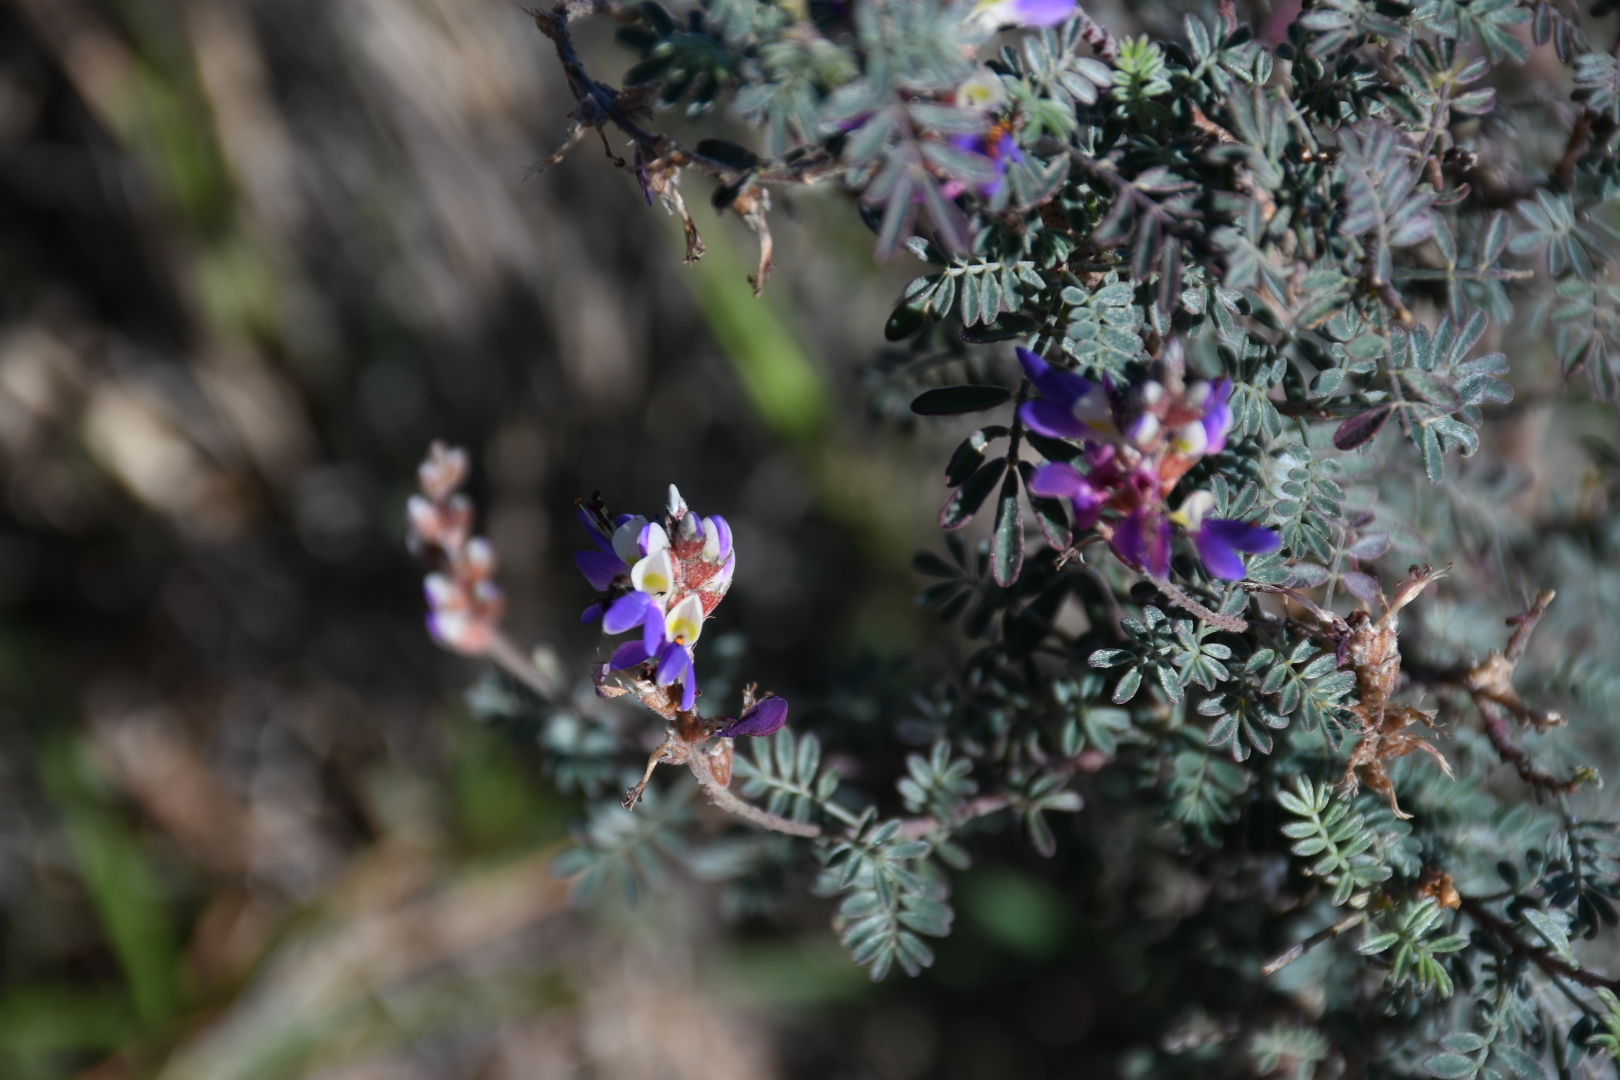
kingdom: Plantae
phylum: Tracheophyta
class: Magnoliopsida
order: Fabales
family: Fabaceae
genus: Dalea
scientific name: Dalea bicolor
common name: Silver prairie-clover
